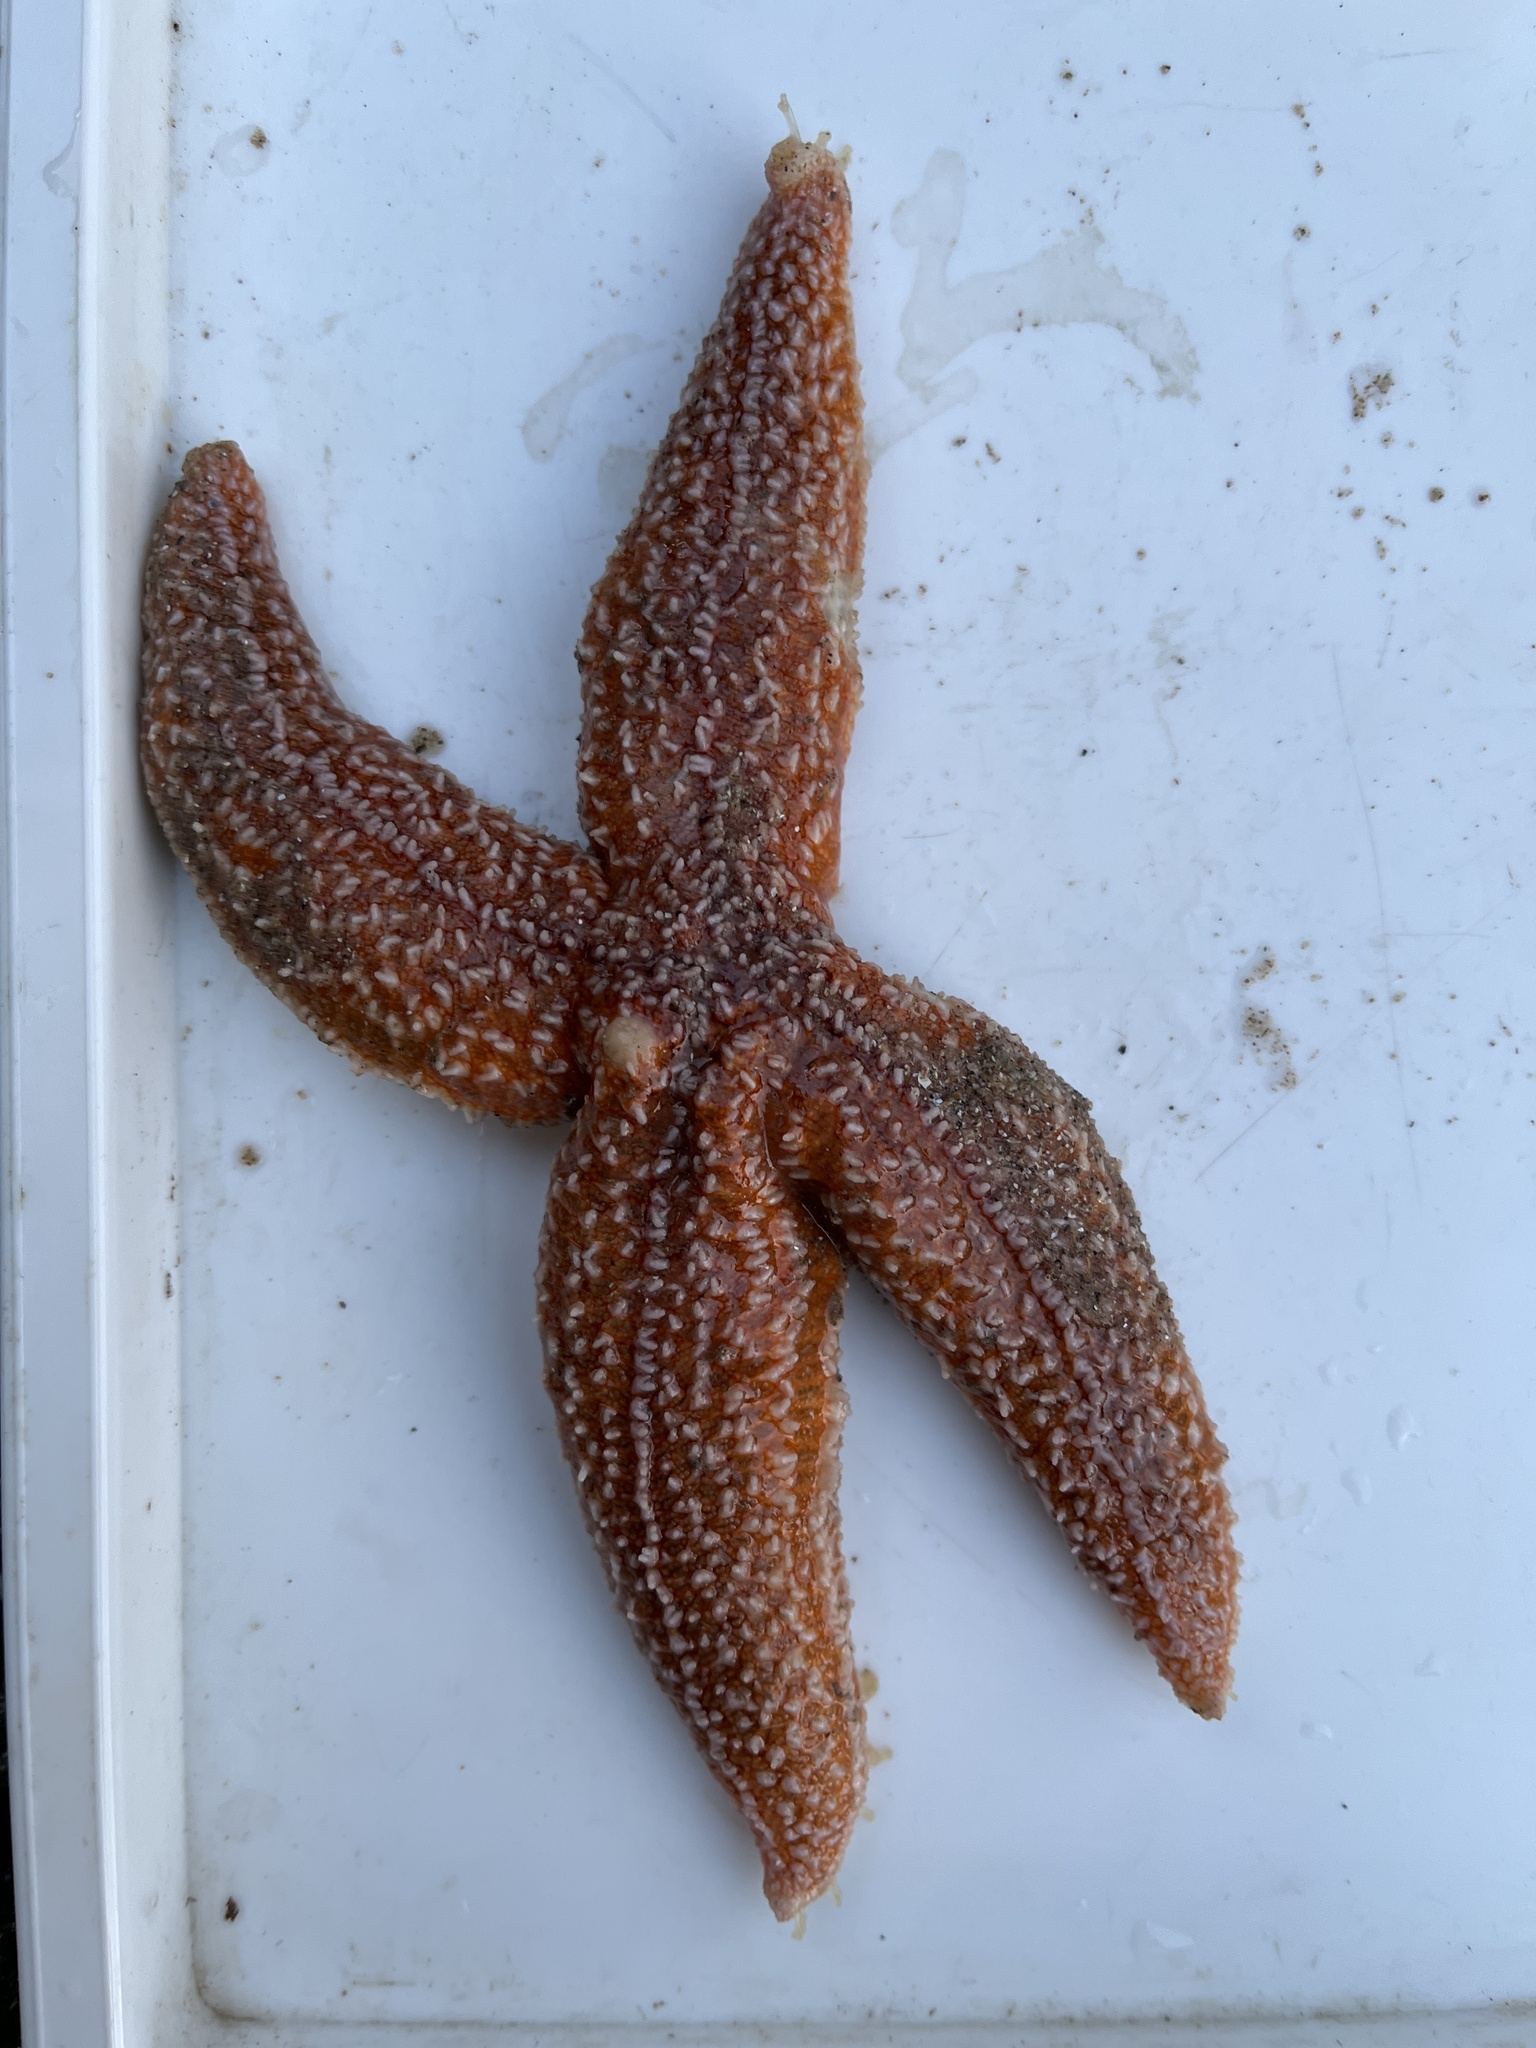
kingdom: Animalia
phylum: Echinodermata
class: Asteroidea
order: Forcipulatida
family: Asteriidae
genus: Asterias
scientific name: Asterias rubens
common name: Common starfish
